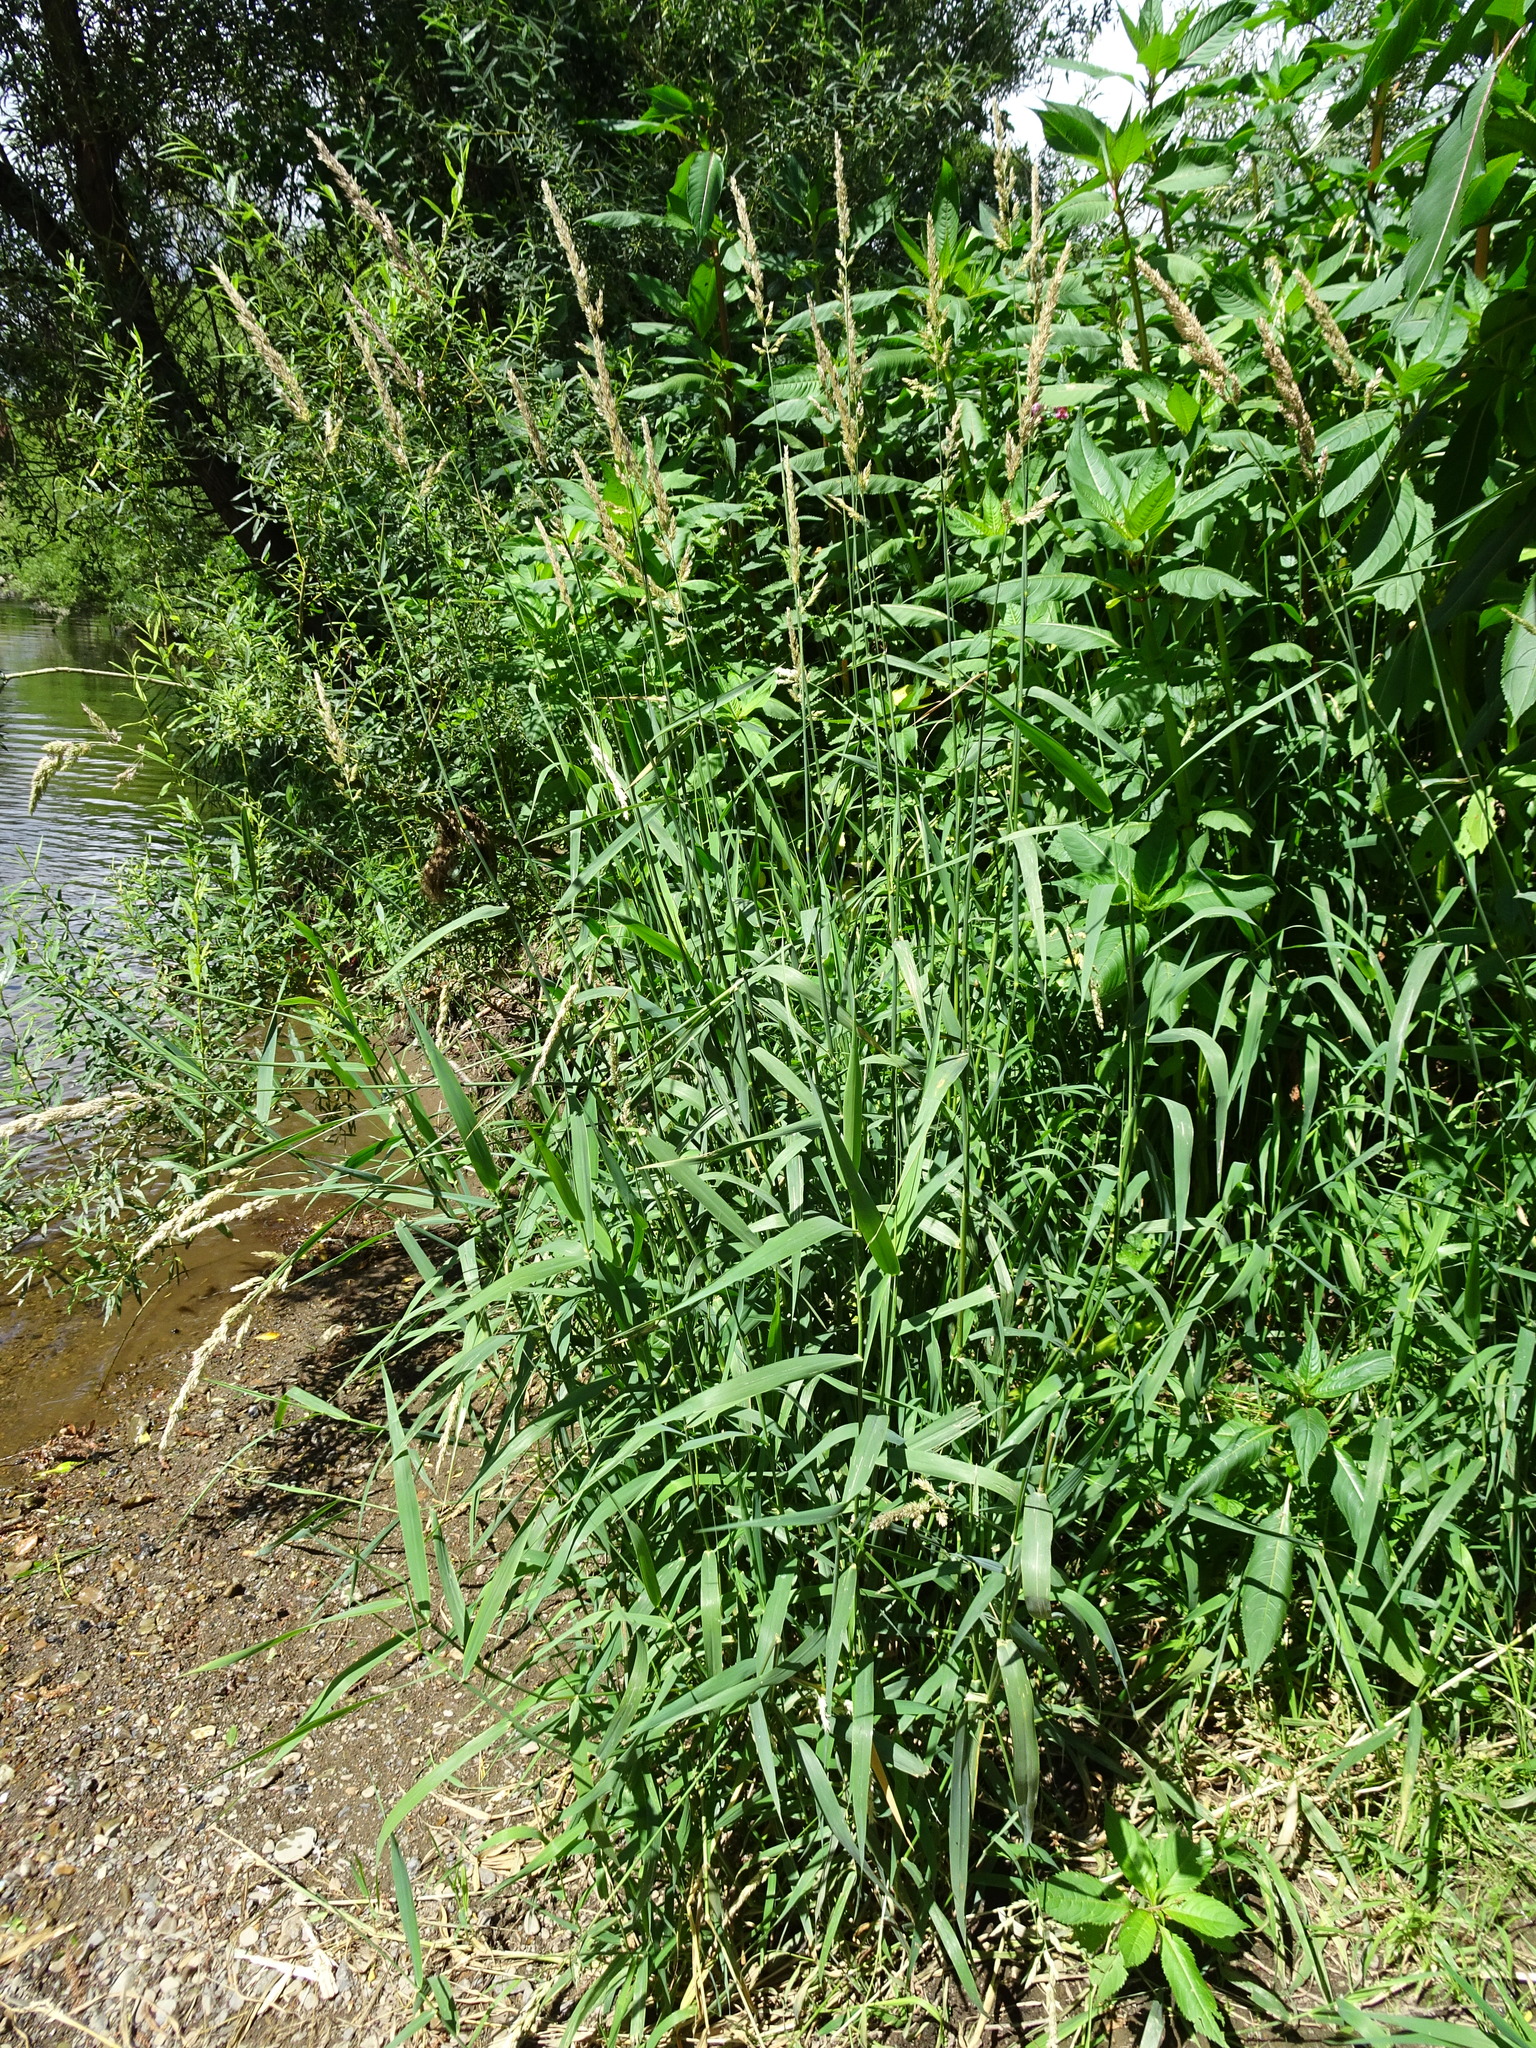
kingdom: Plantae
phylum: Tracheophyta
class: Liliopsida
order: Poales
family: Poaceae
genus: Phalaris
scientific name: Phalaris arundinacea
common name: Reed canary-grass
